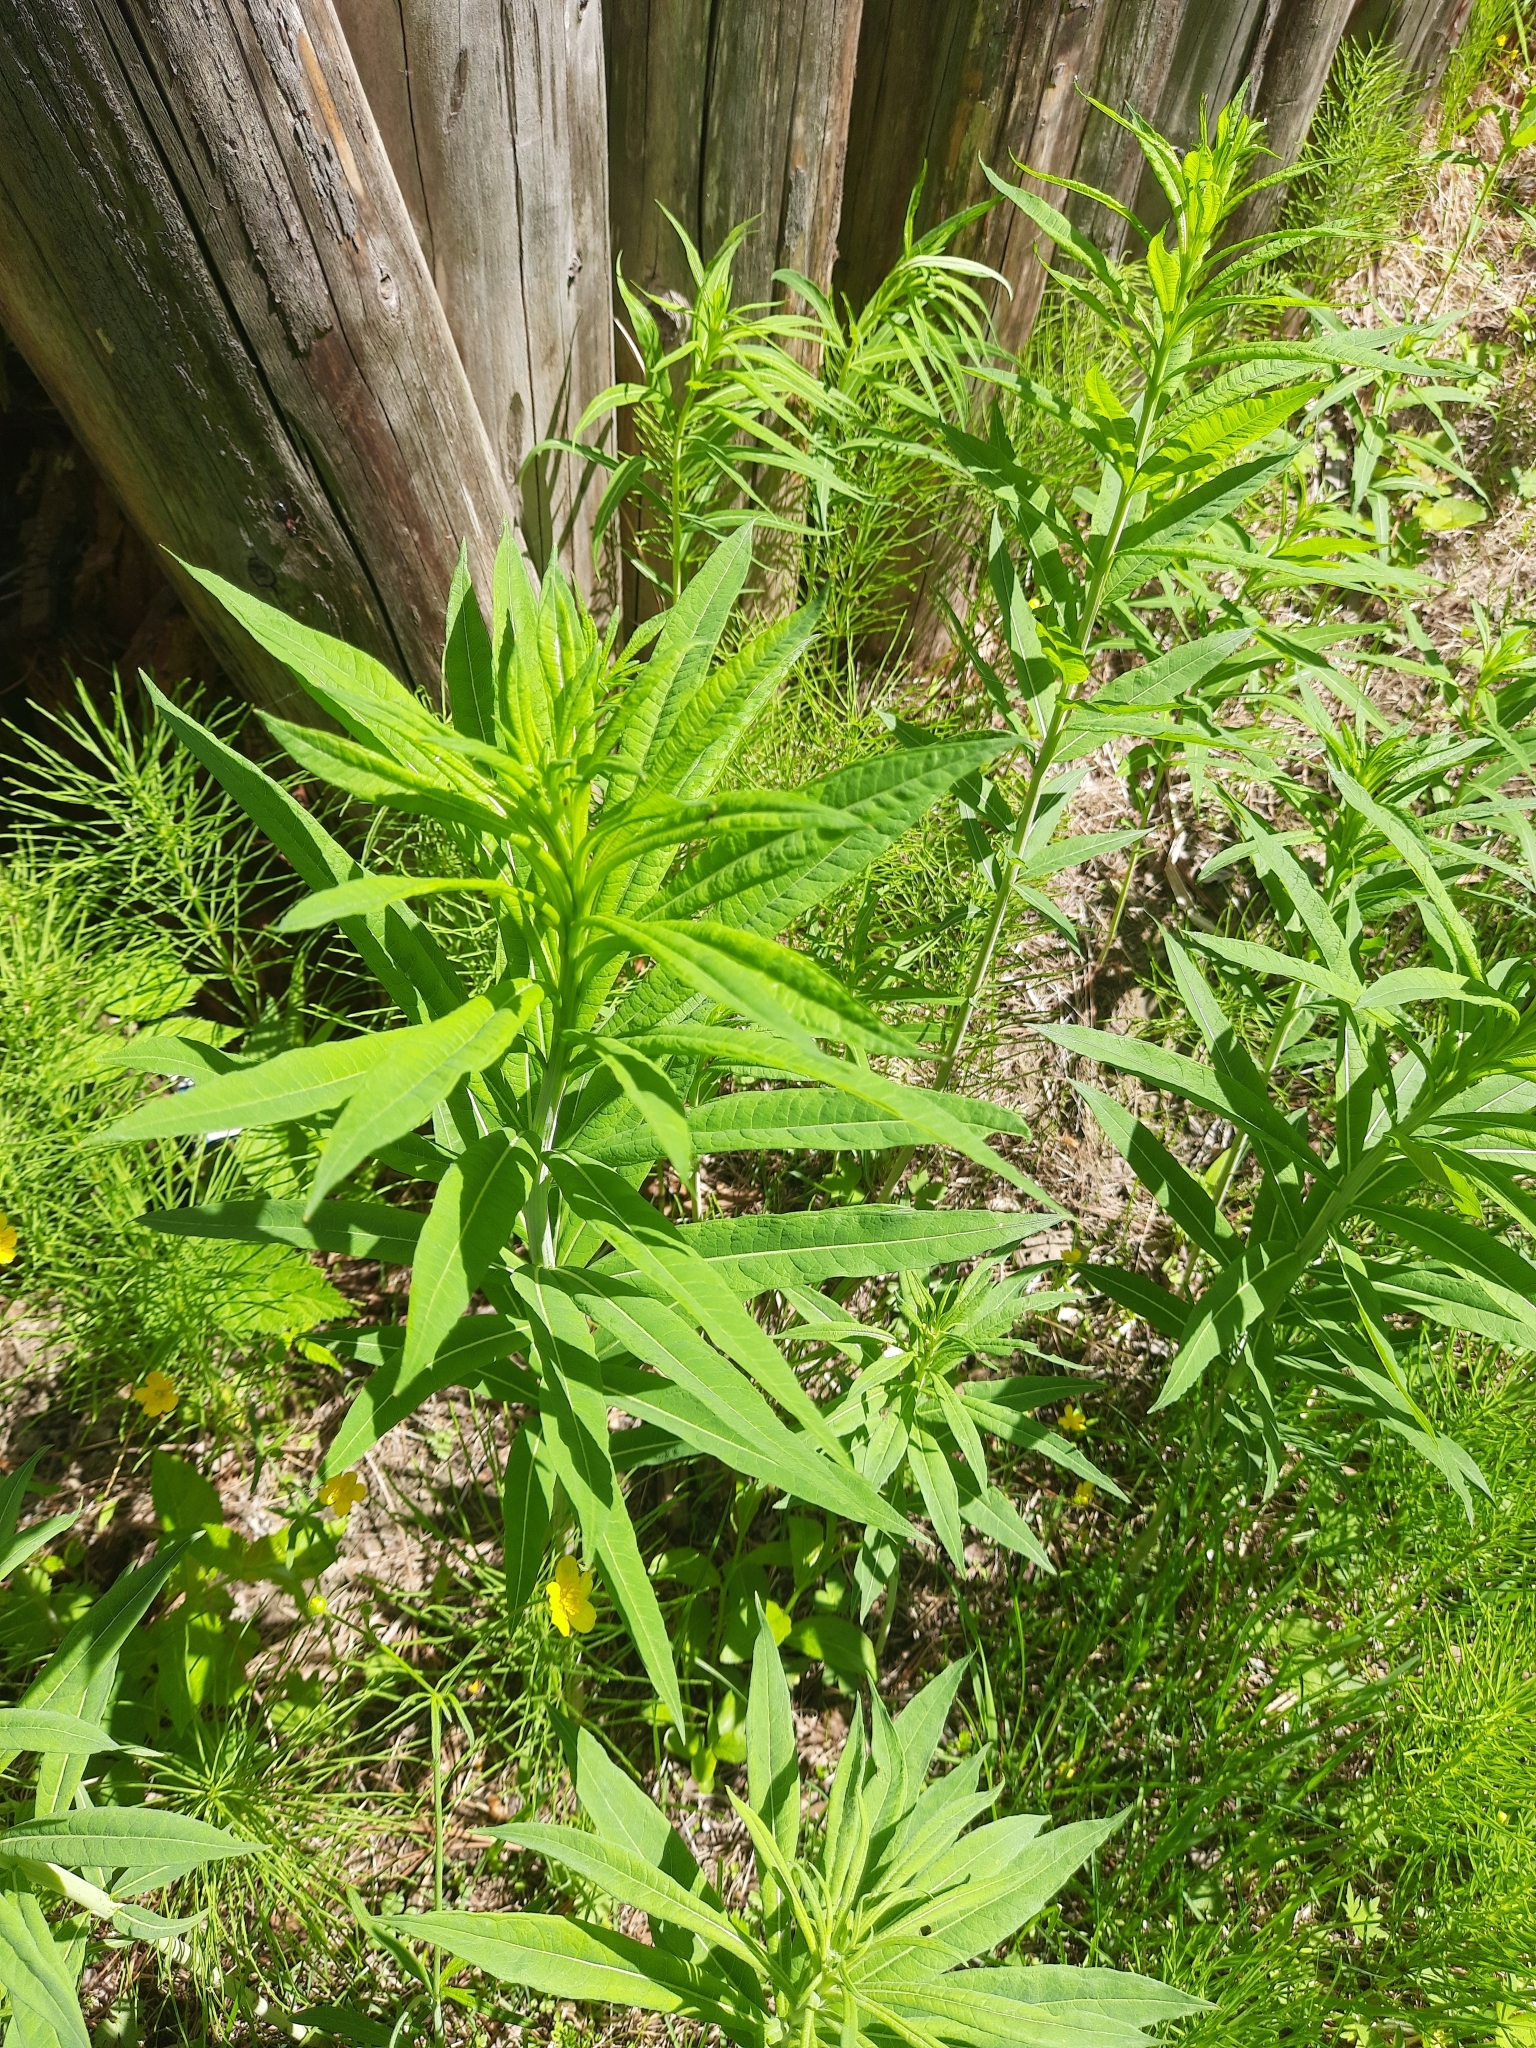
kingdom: Plantae
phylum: Tracheophyta
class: Magnoliopsida
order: Myrtales
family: Onagraceae
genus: Chamaenerion
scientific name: Chamaenerion angustifolium
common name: Fireweed
